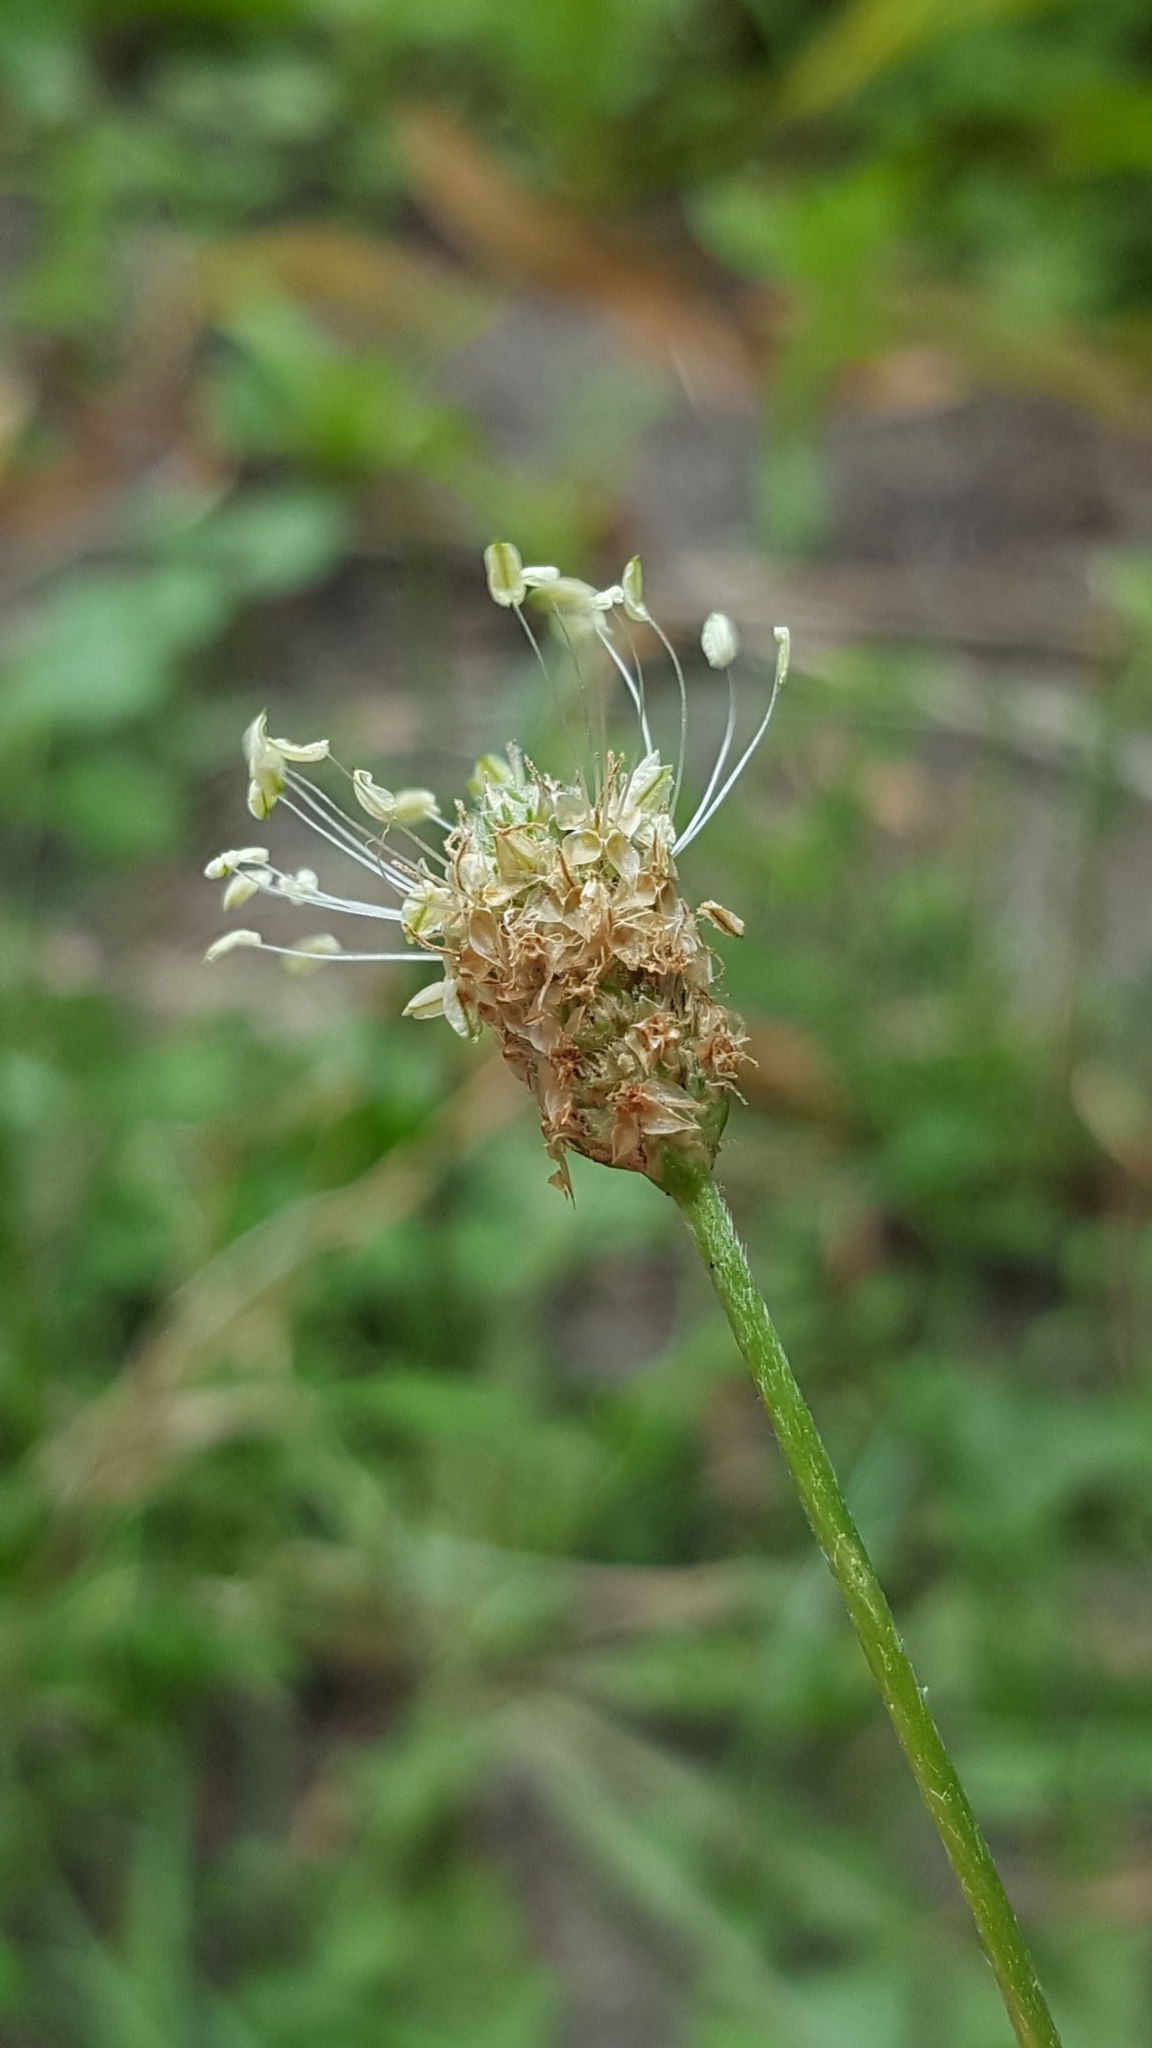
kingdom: Plantae
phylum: Tracheophyta
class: Magnoliopsida
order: Lamiales
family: Plantaginaceae
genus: Plantago
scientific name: Plantago lanceolata
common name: Ribwort plantain
